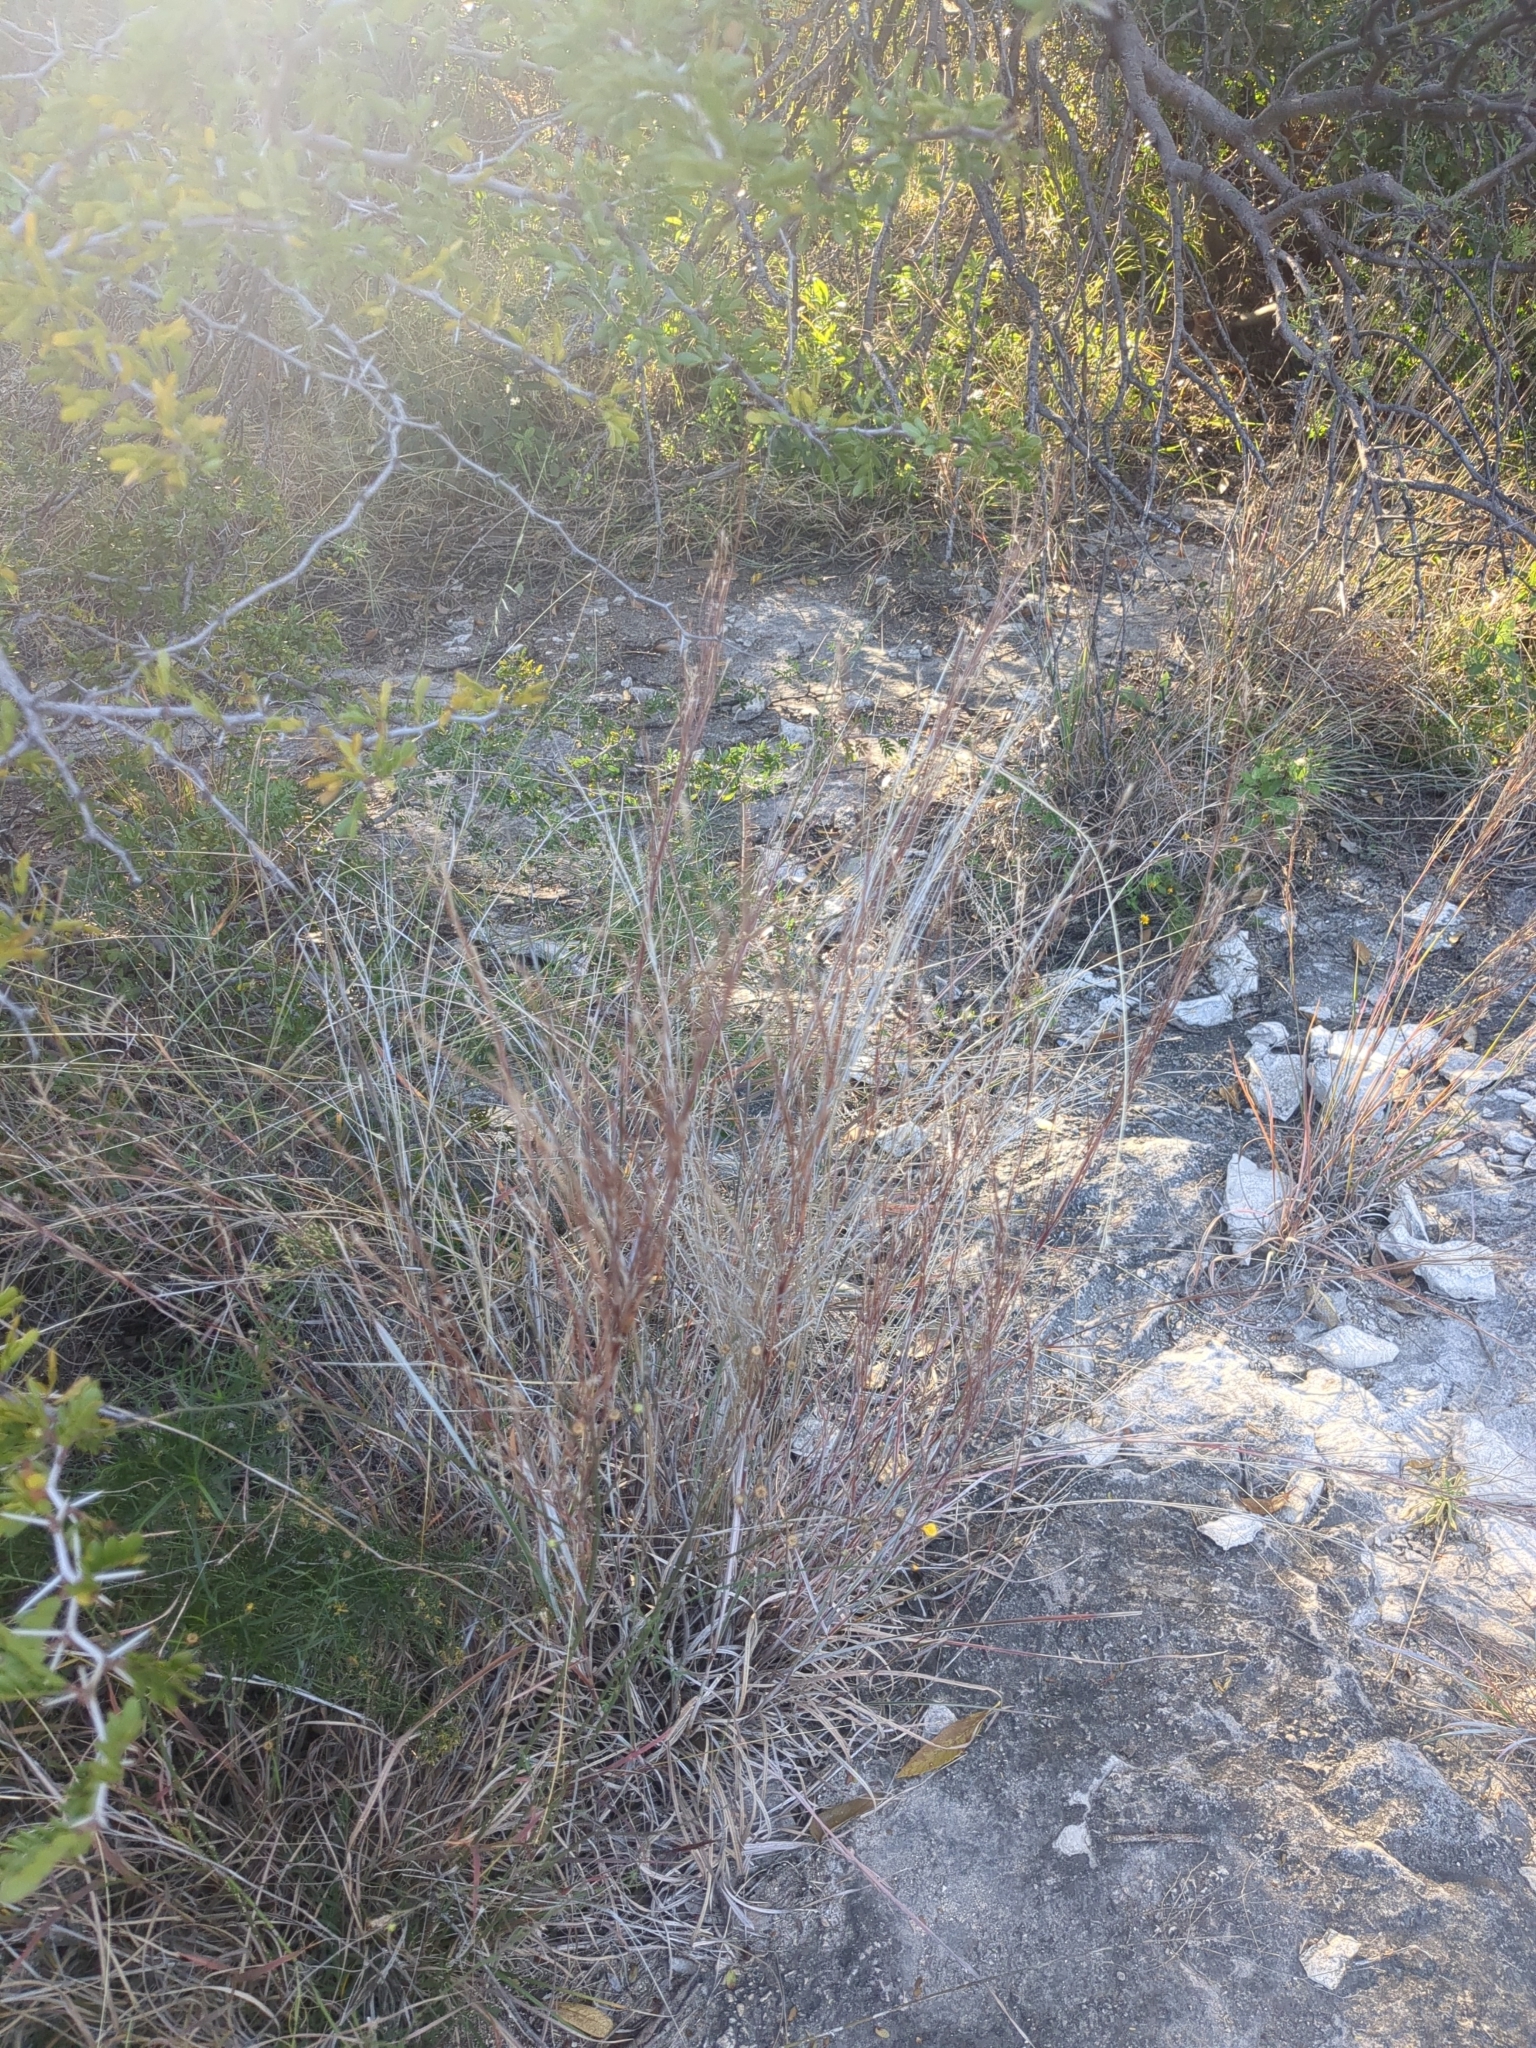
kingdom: Plantae
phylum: Tracheophyta
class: Liliopsida
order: Poales
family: Poaceae
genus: Schizachyrium
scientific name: Schizachyrium scoparium
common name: Little bluestem
